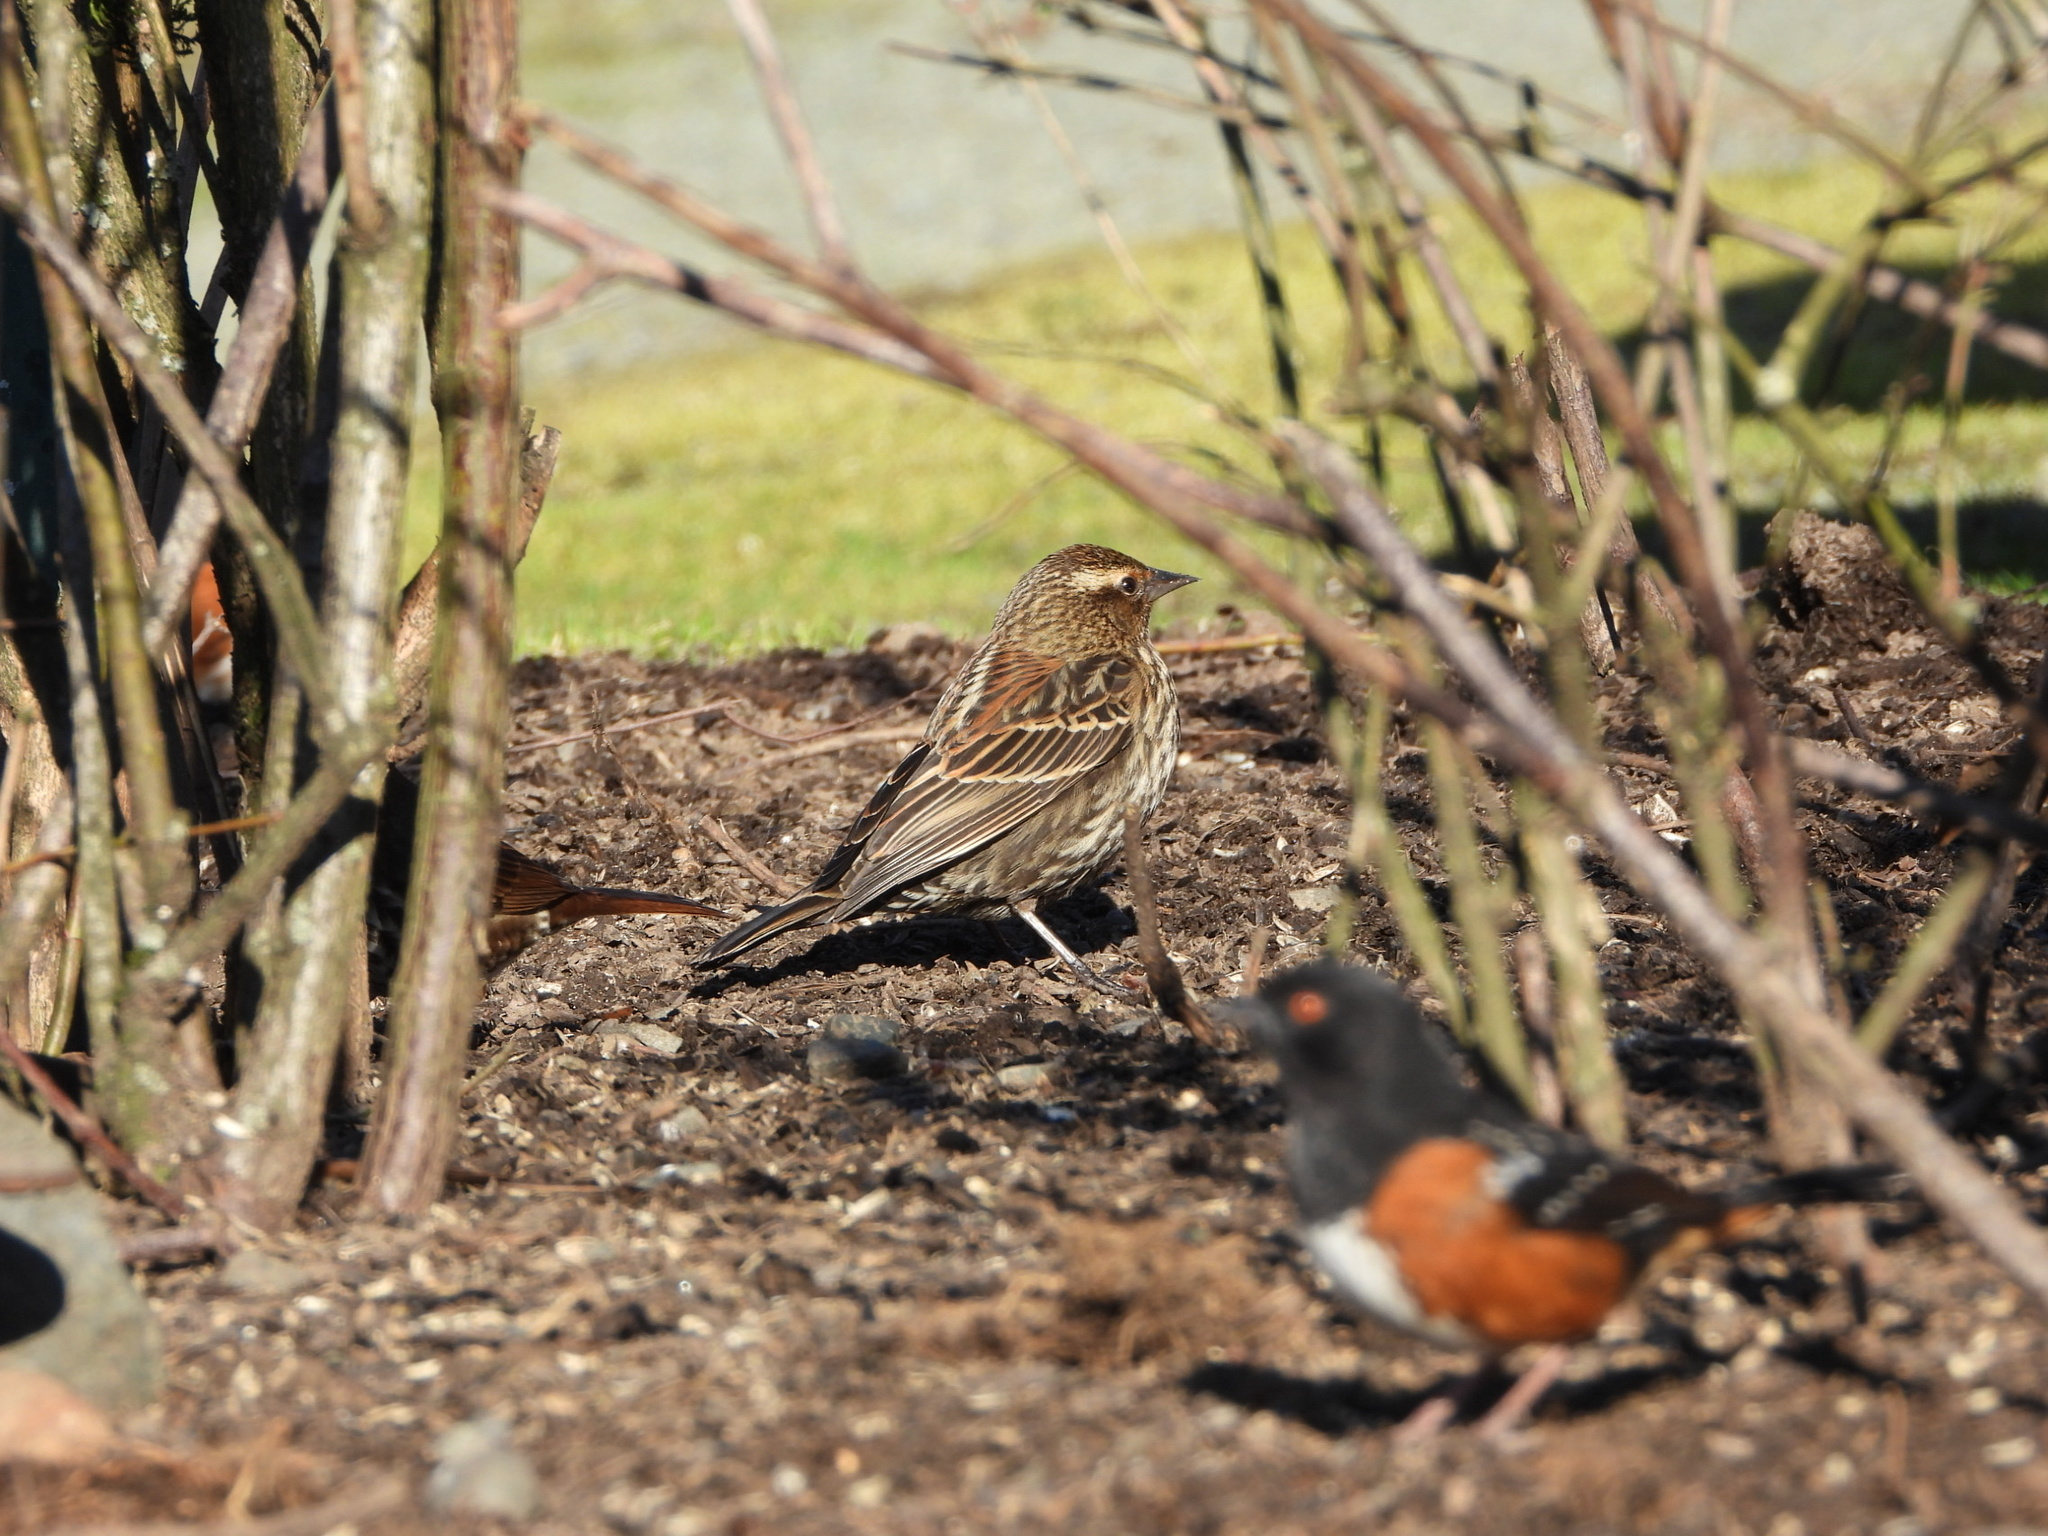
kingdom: Animalia
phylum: Chordata
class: Aves
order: Passeriformes
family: Icteridae
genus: Agelaius
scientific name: Agelaius phoeniceus
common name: Red-winged blackbird
